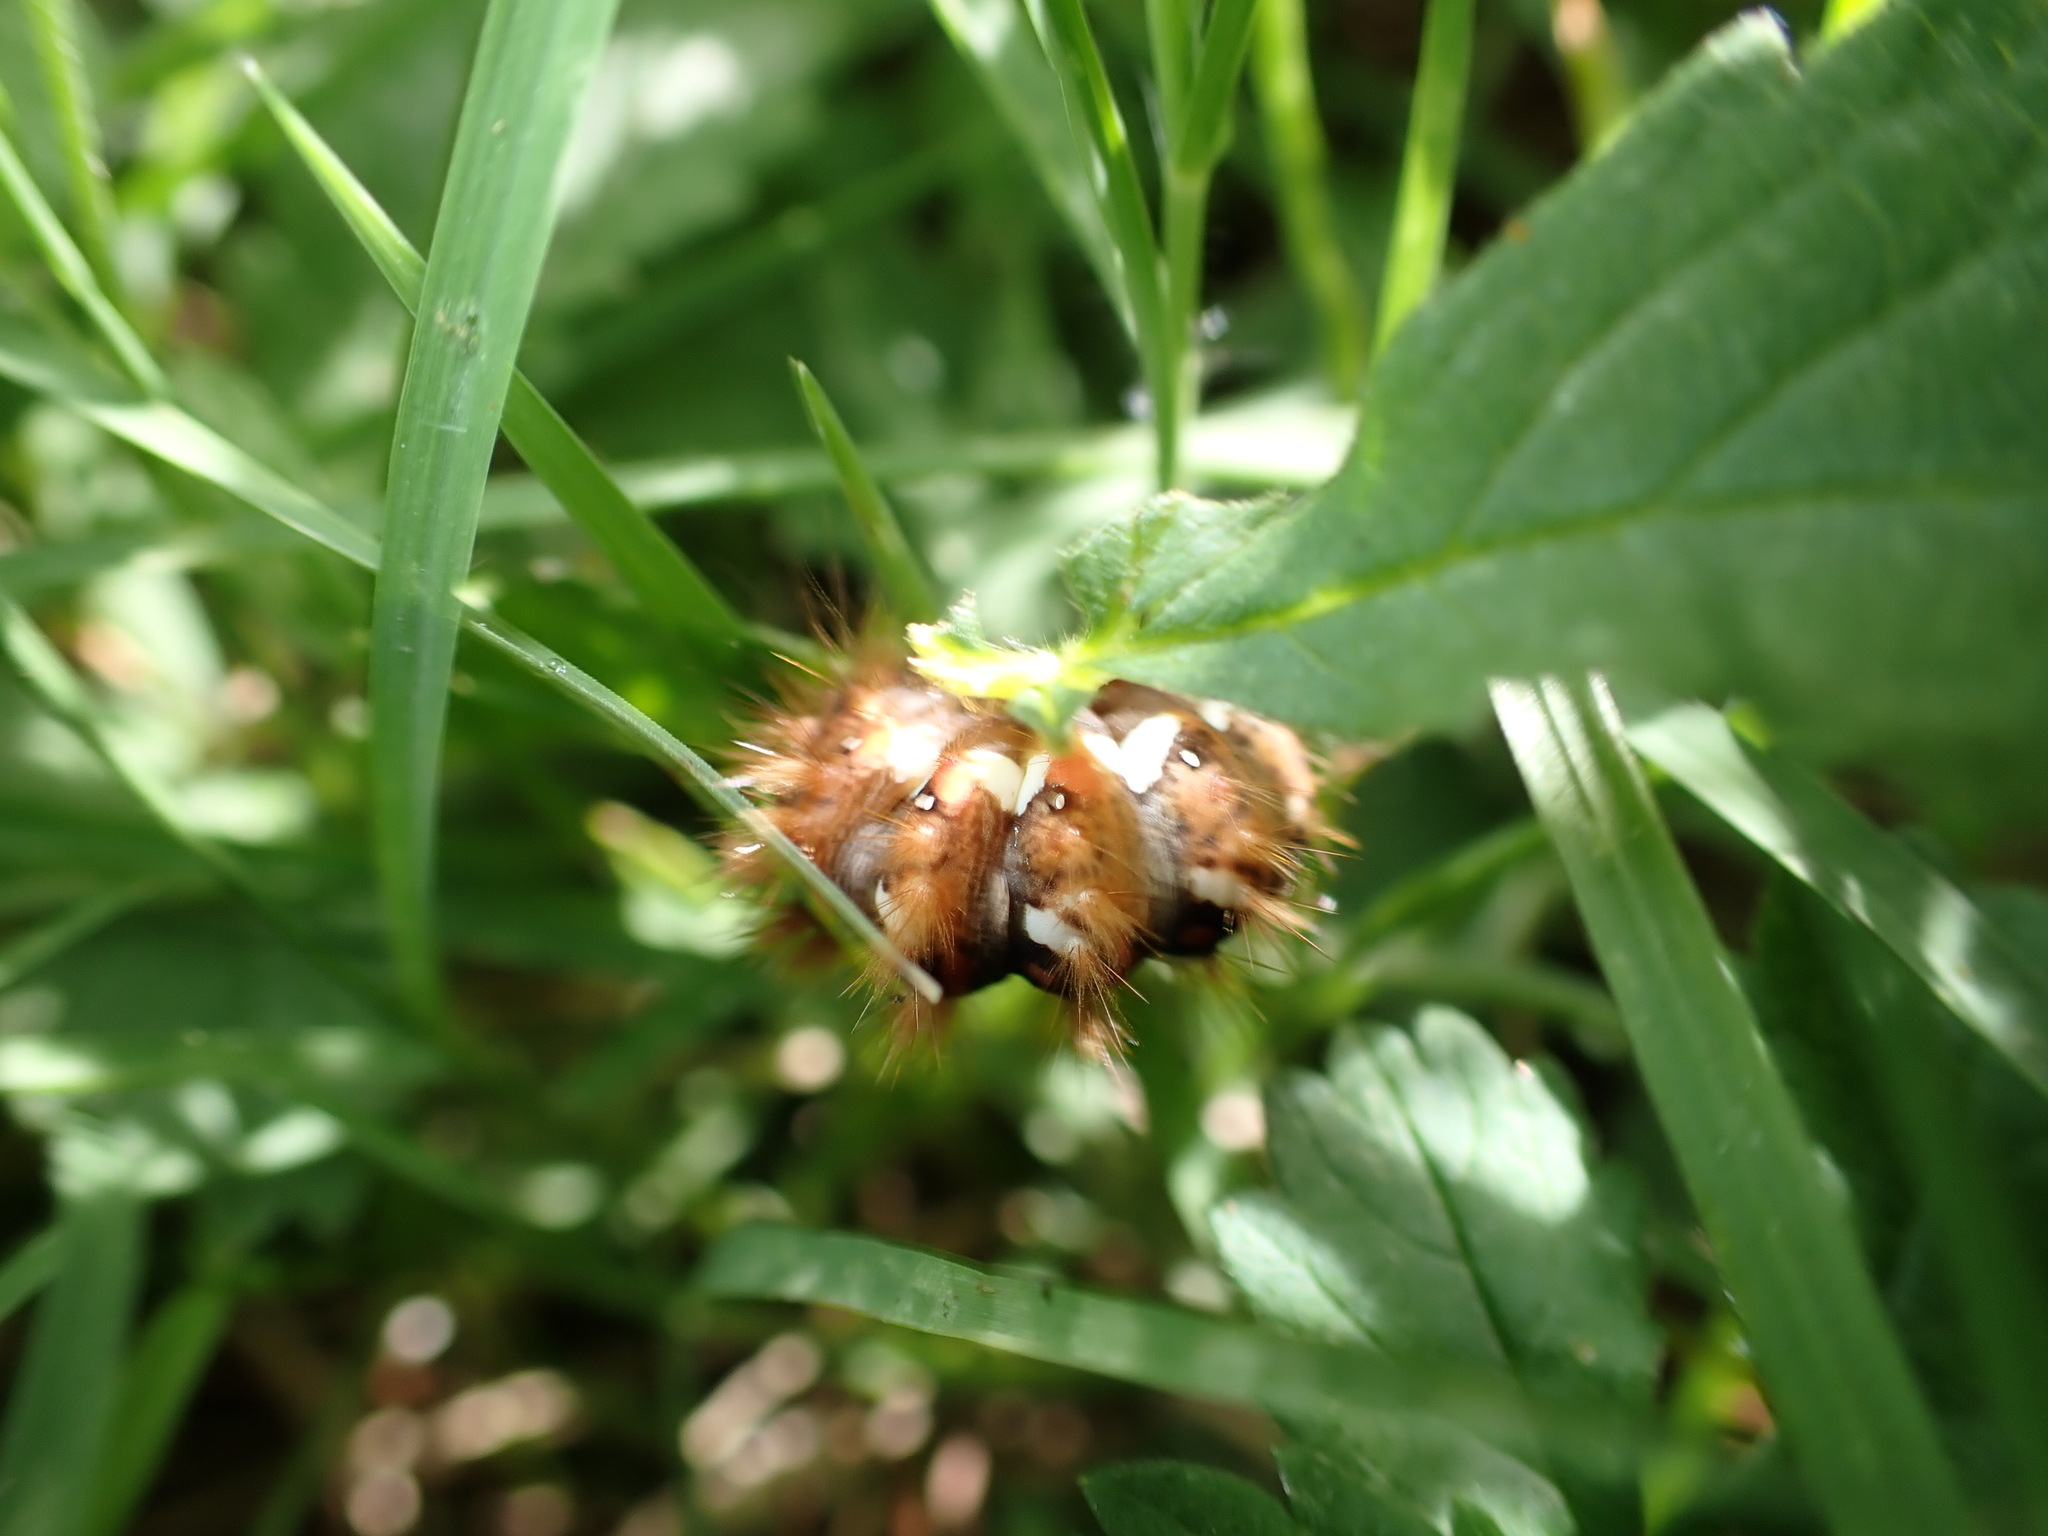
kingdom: Animalia
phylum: Arthropoda
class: Insecta
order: Lepidoptera
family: Noctuidae
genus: Acronicta
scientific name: Acronicta rumicis
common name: Knot grass
